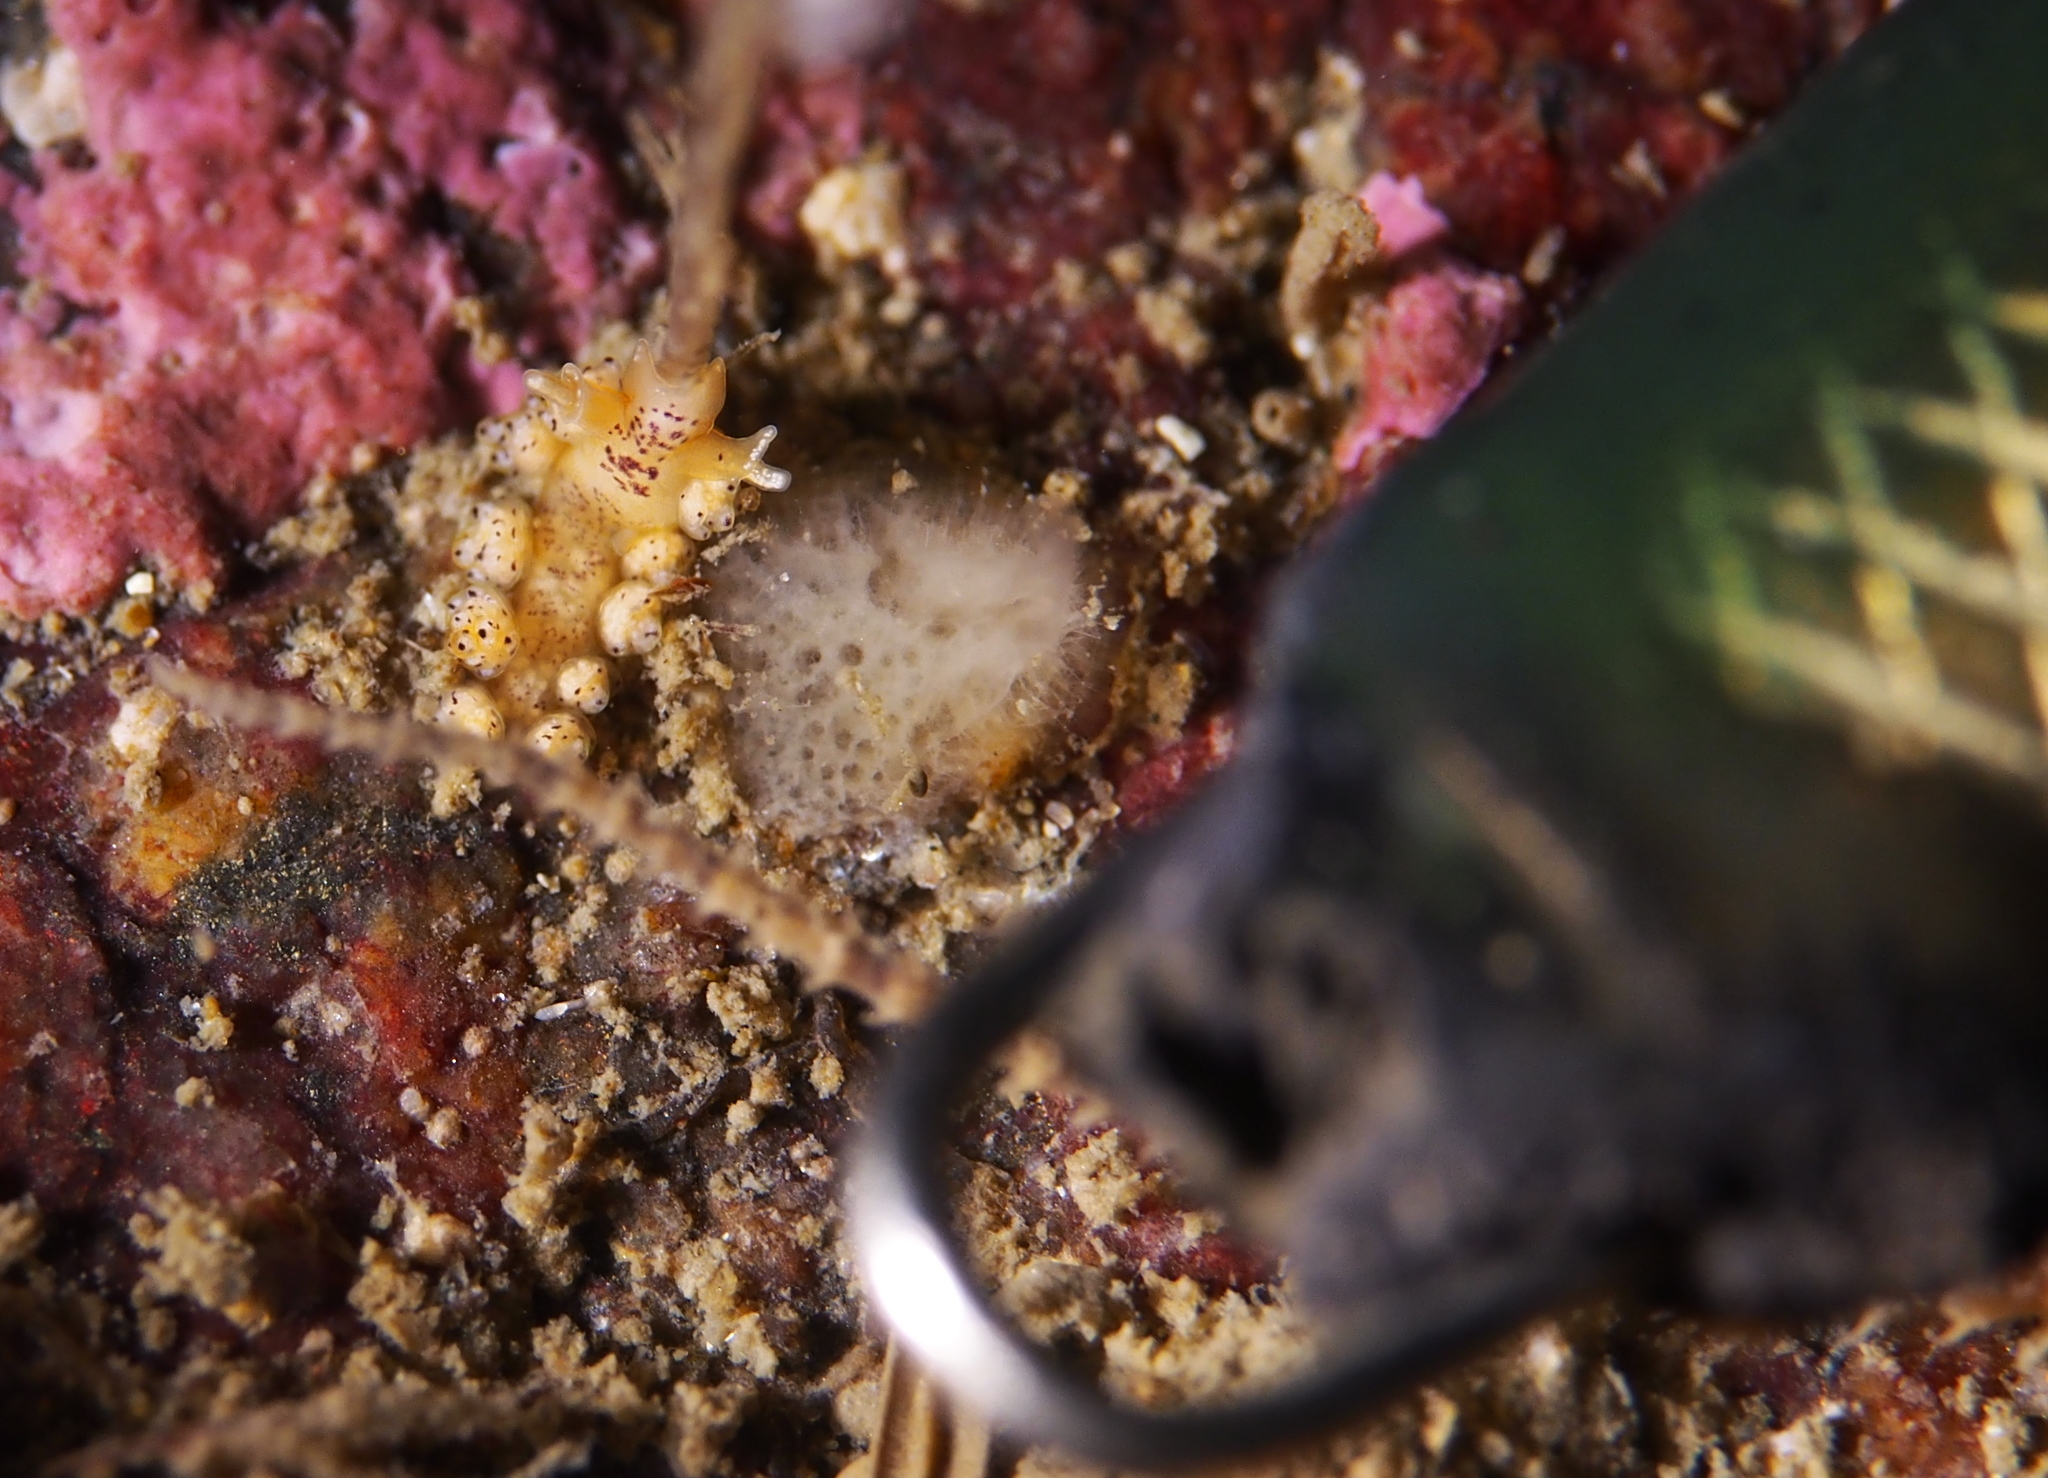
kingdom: Animalia
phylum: Mollusca
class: Gastropoda
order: Nudibranchia
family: Dotidae
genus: Doto
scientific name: Doto dunnei
